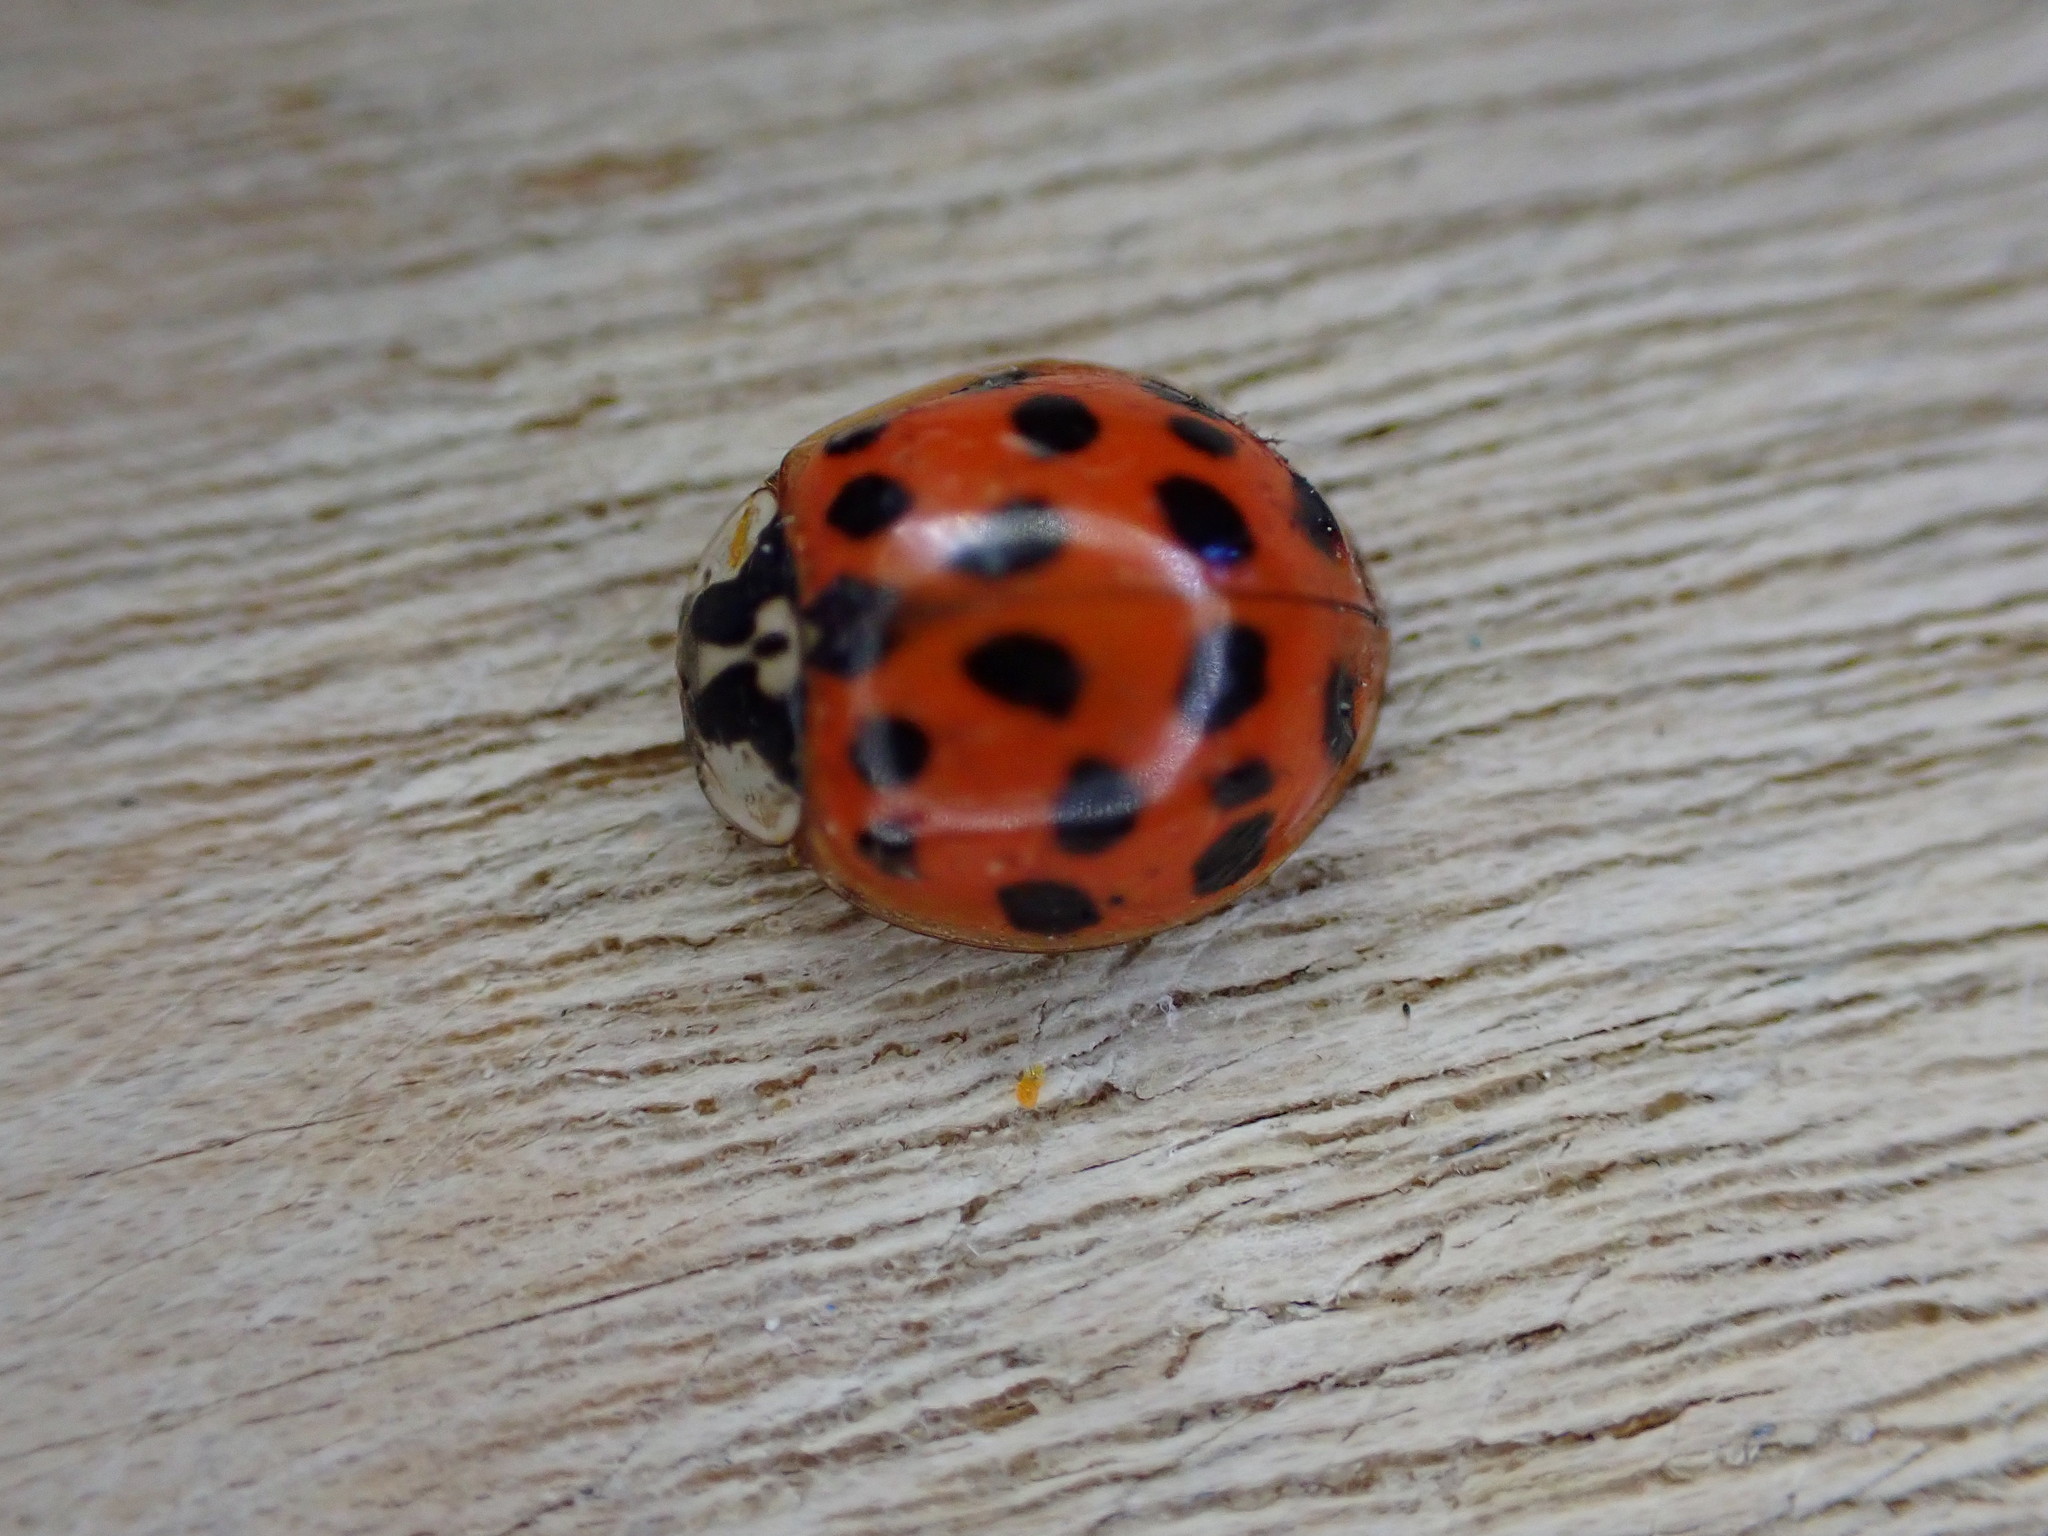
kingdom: Animalia
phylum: Arthropoda
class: Insecta
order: Coleoptera
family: Coccinellidae
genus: Harmonia
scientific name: Harmonia axyridis
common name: Harlequin ladybird
